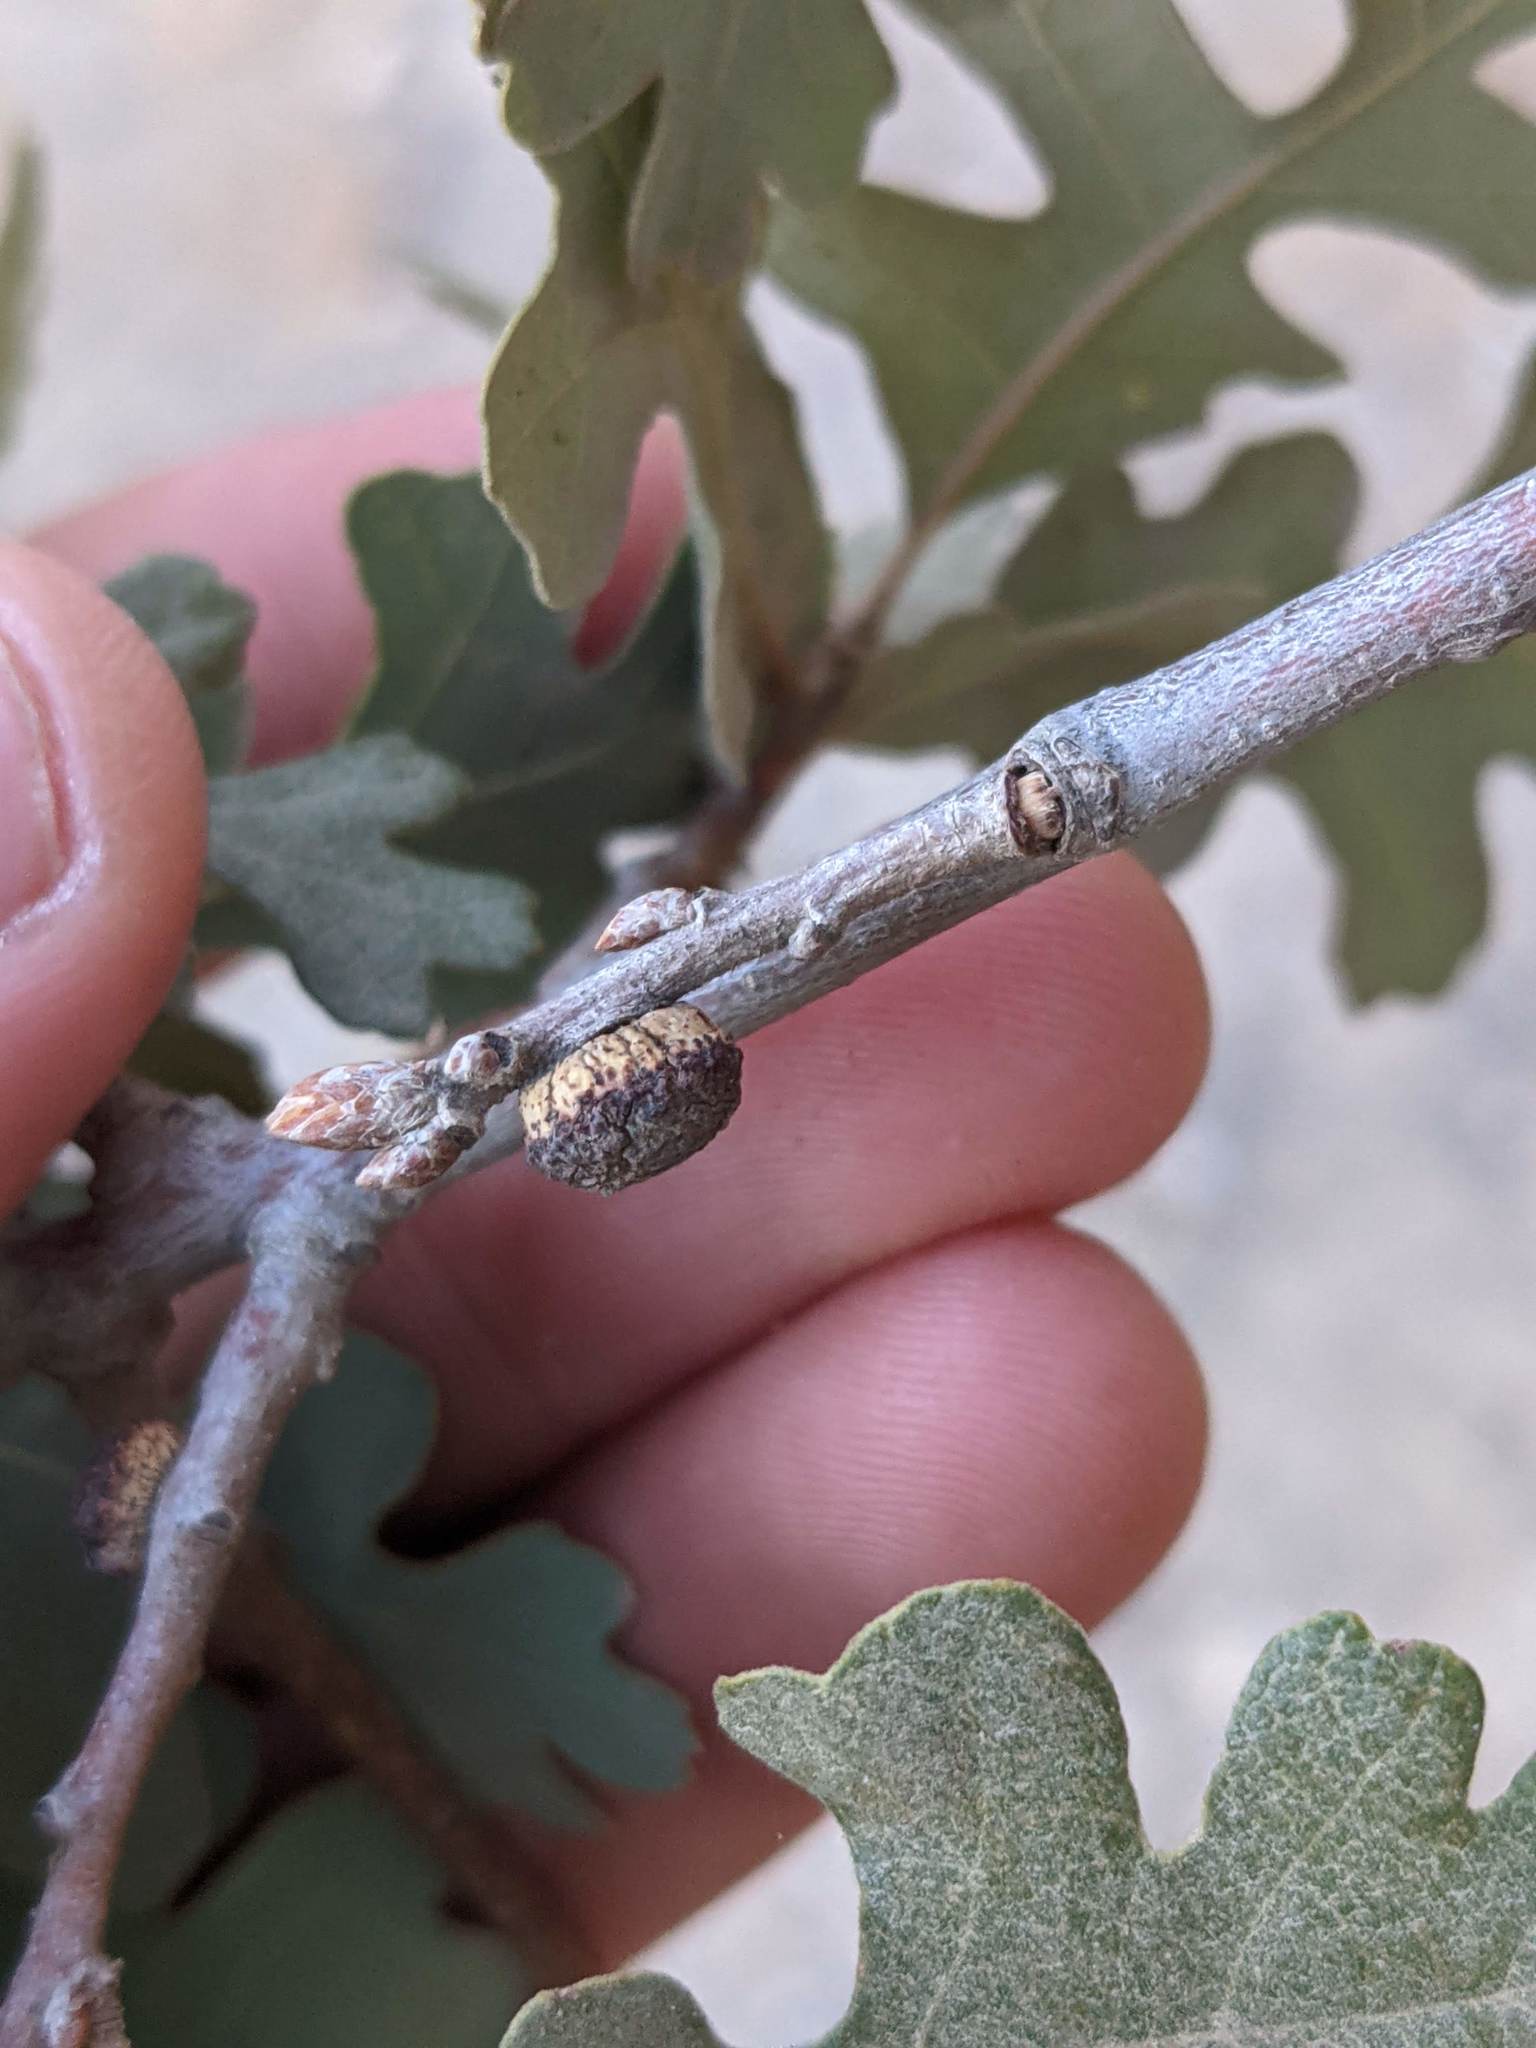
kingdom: Animalia
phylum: Arthropoda
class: Insecta
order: Hymenoptera
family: Cynipidae
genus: Disholcaspis
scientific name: Disholcaspis
